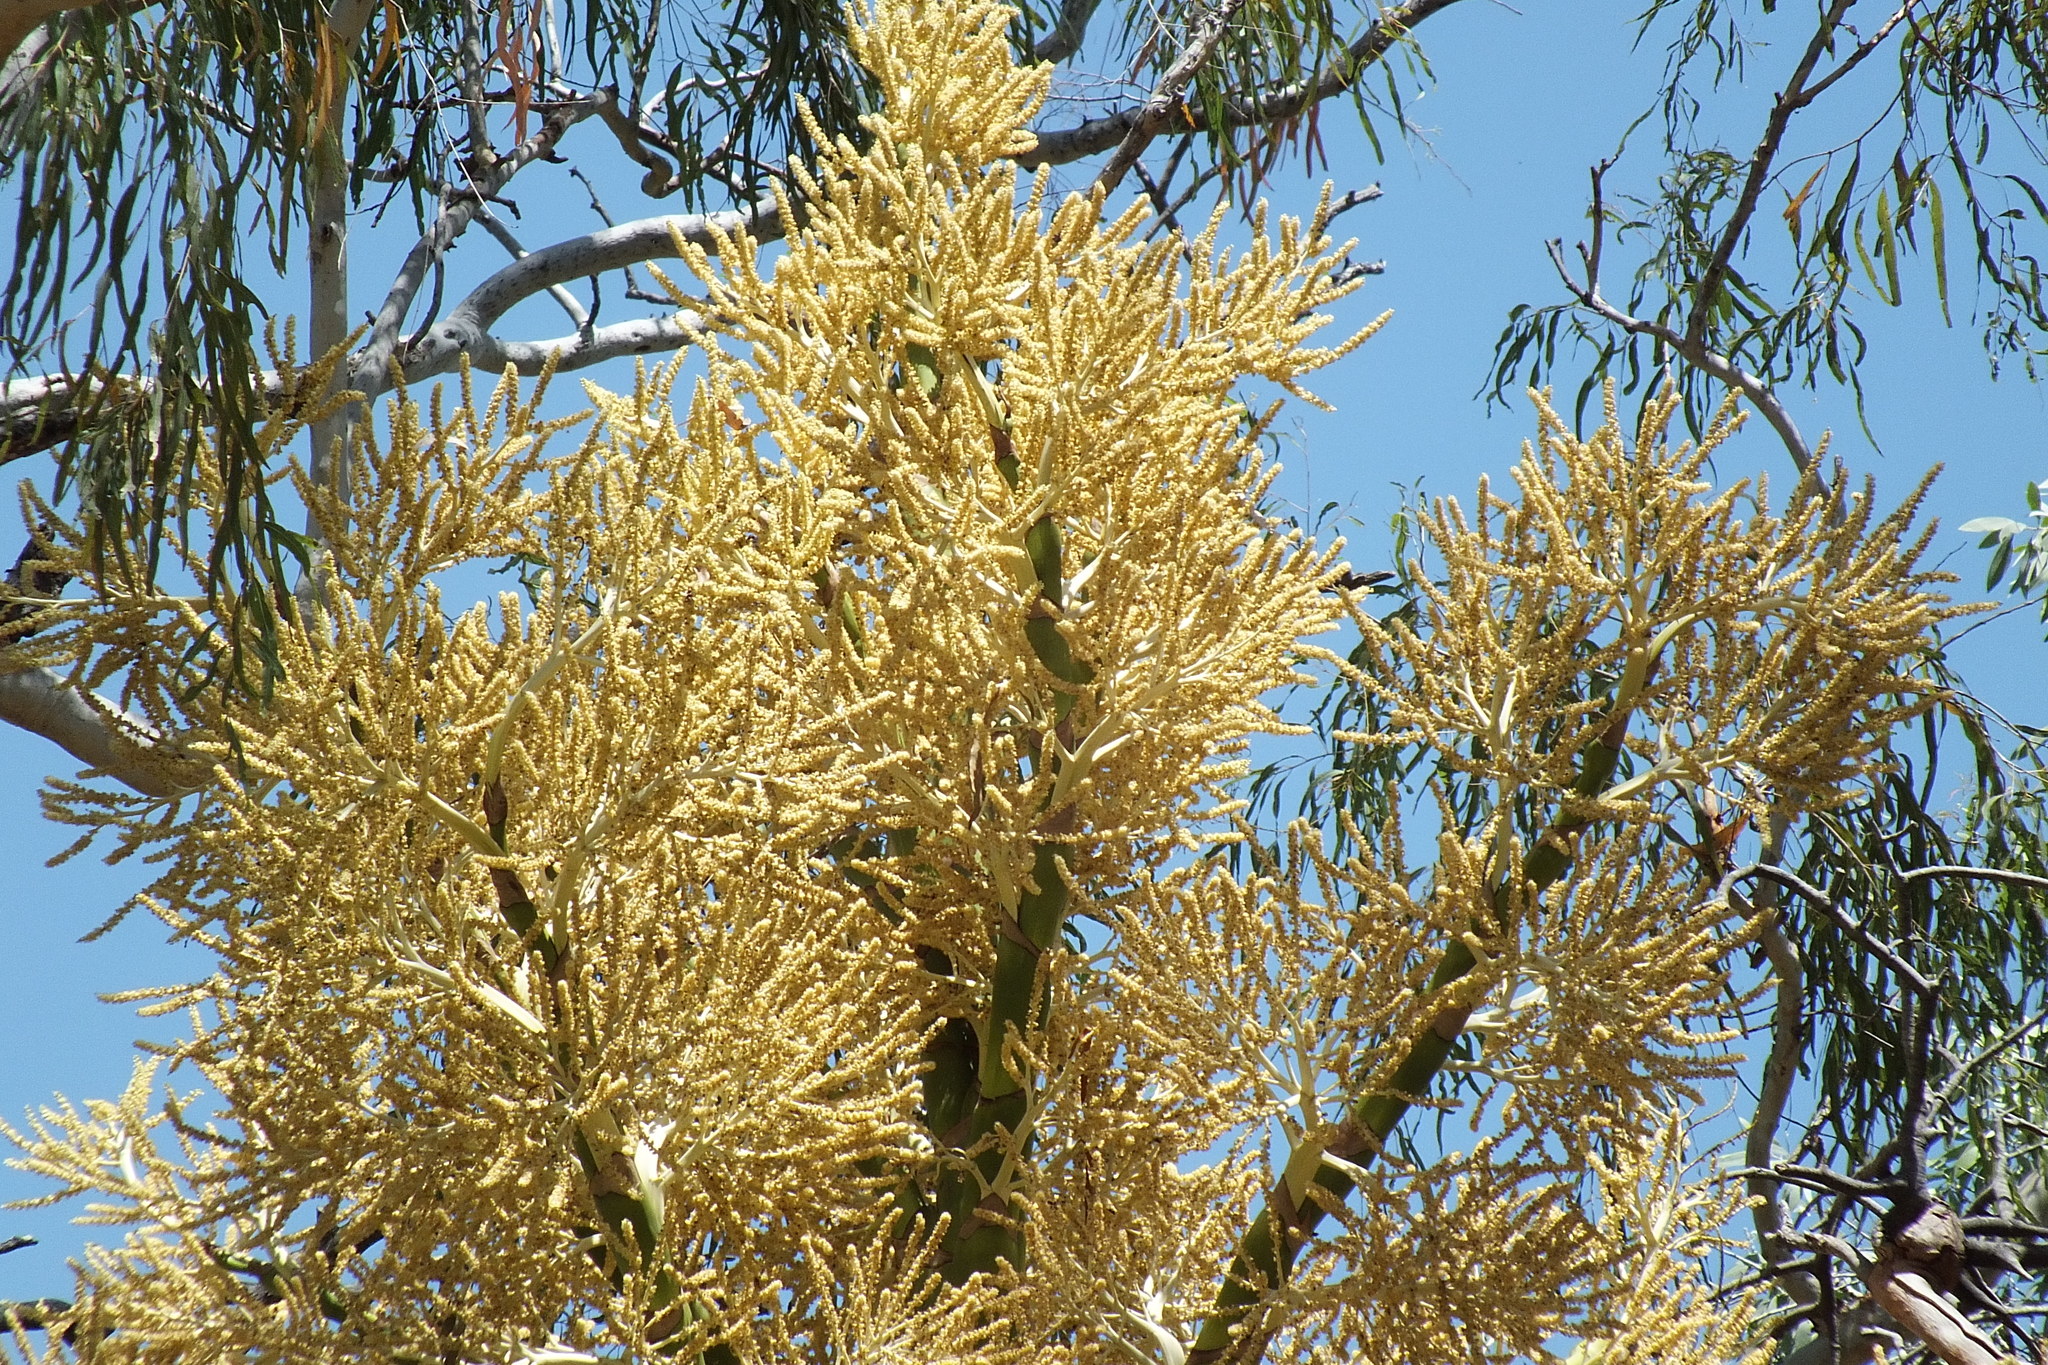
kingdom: Plantae
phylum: Tracheophyta
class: Liliopsida
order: Arecales
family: Arecaceae
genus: Corypha
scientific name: Corypha utan
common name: Buri palm
